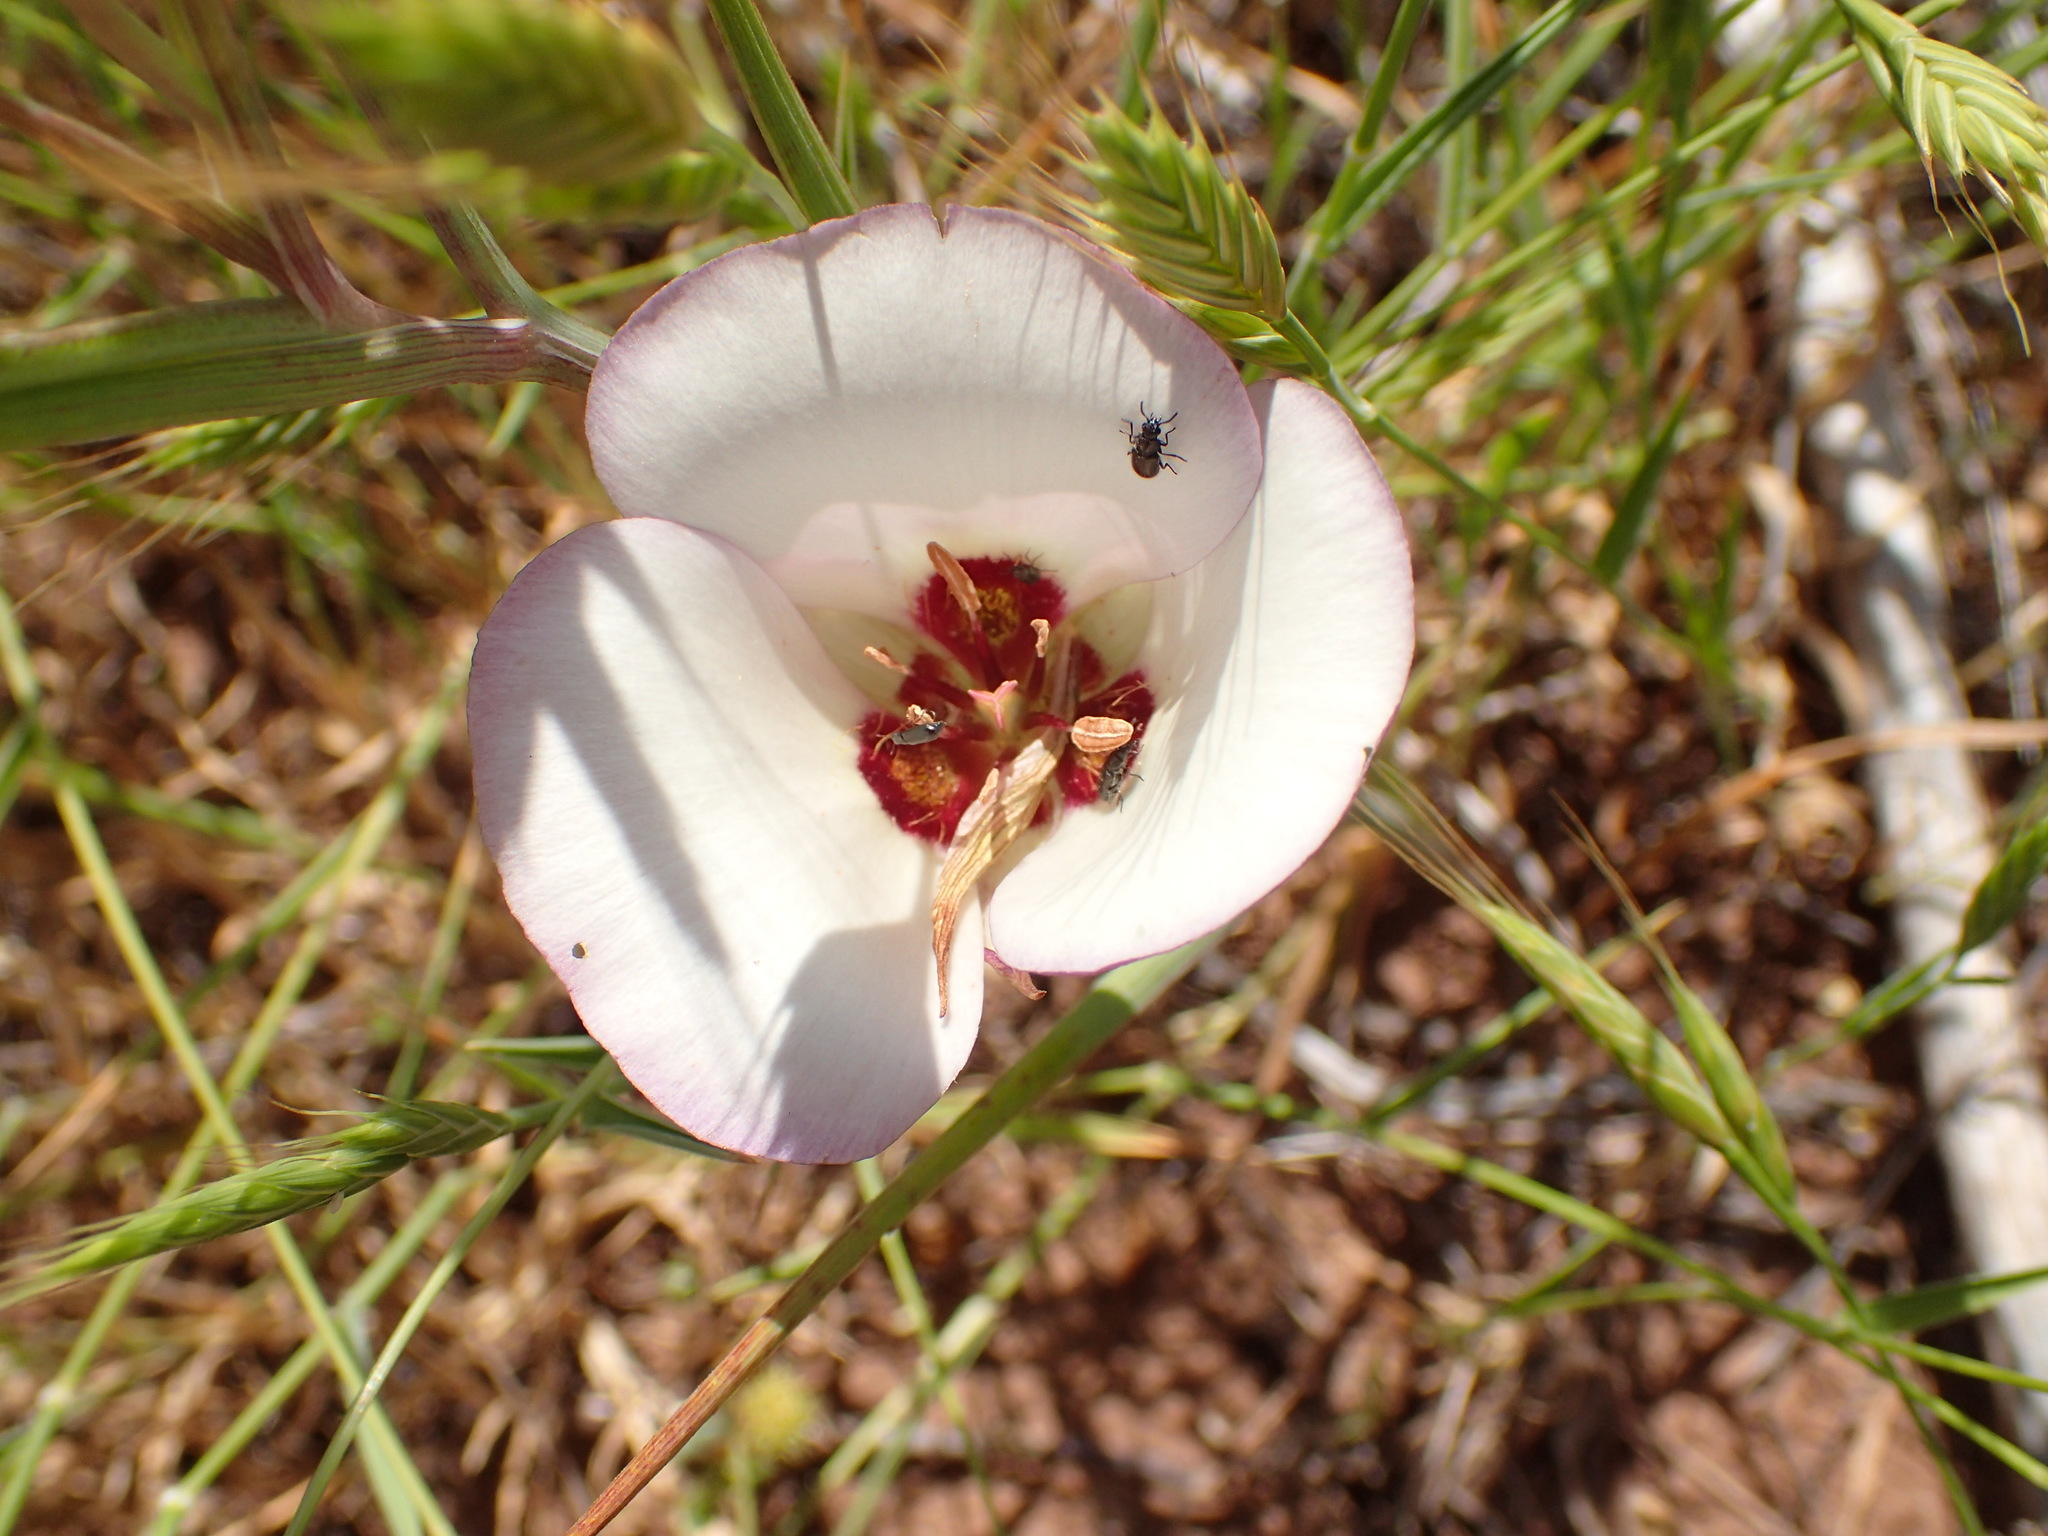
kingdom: Plantae
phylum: Tracheophyta
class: Liliopsida
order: Liliales
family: Liliaceae
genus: Calochortus
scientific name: Calochortus catalinae
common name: Catalina mariposa-lily
